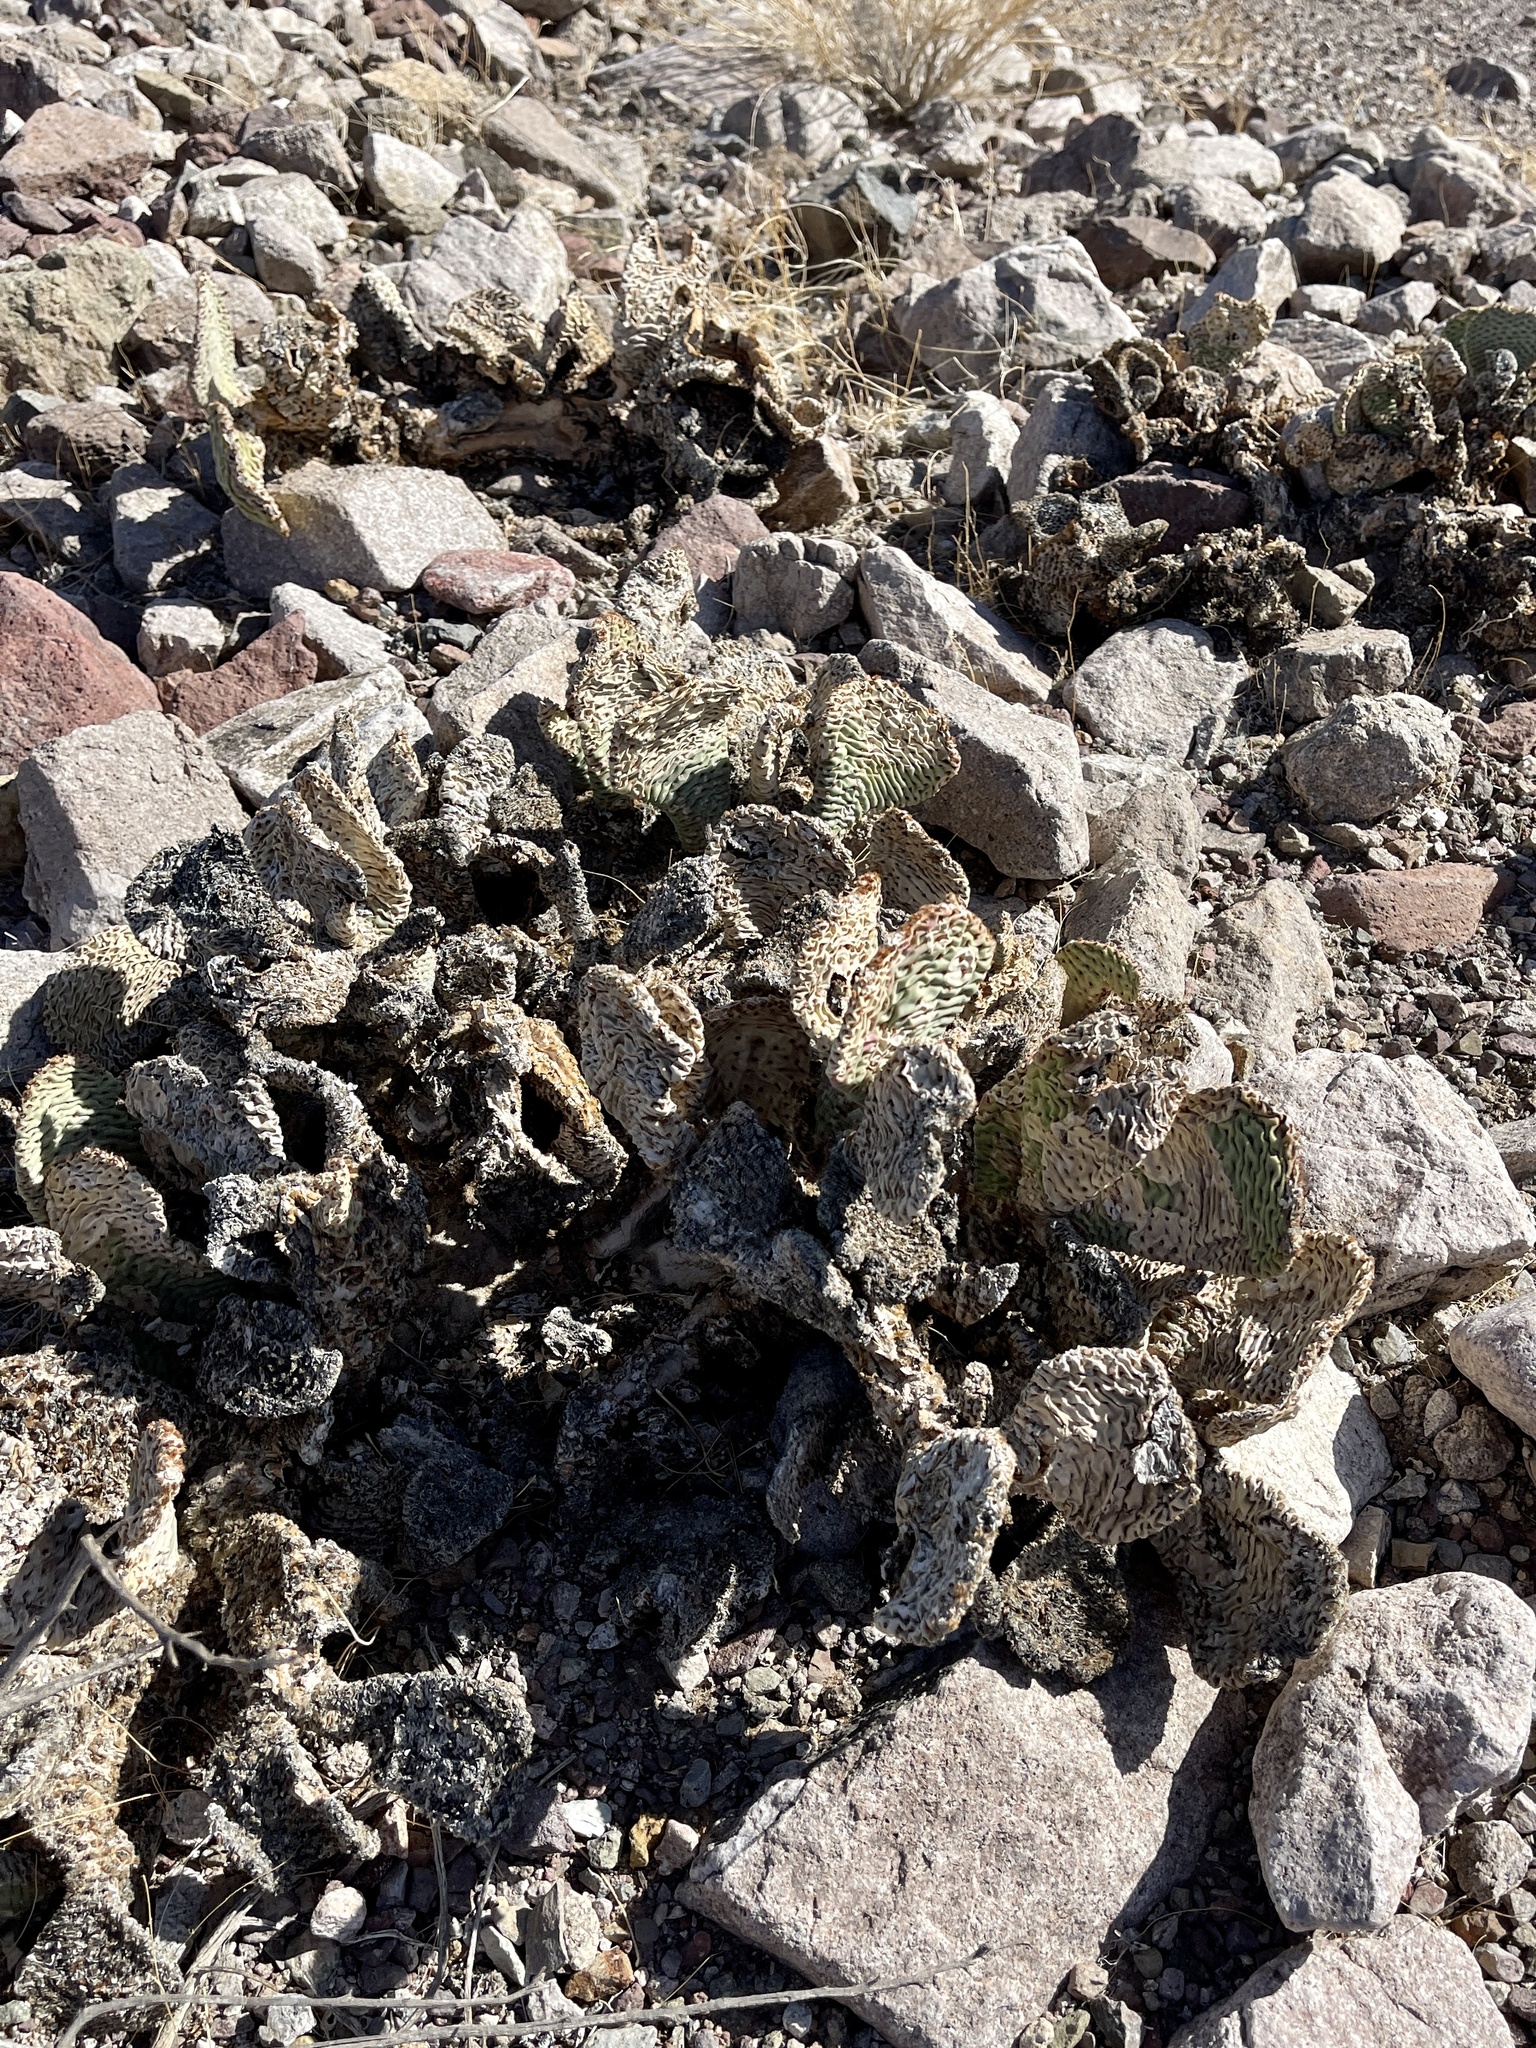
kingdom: Plantae
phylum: Tracheophyta
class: Magnoliopsida
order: Caryophyllales
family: Cactaceae
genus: Opuntia
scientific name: Opuntia basilaris
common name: Beavertail prickly-pear
